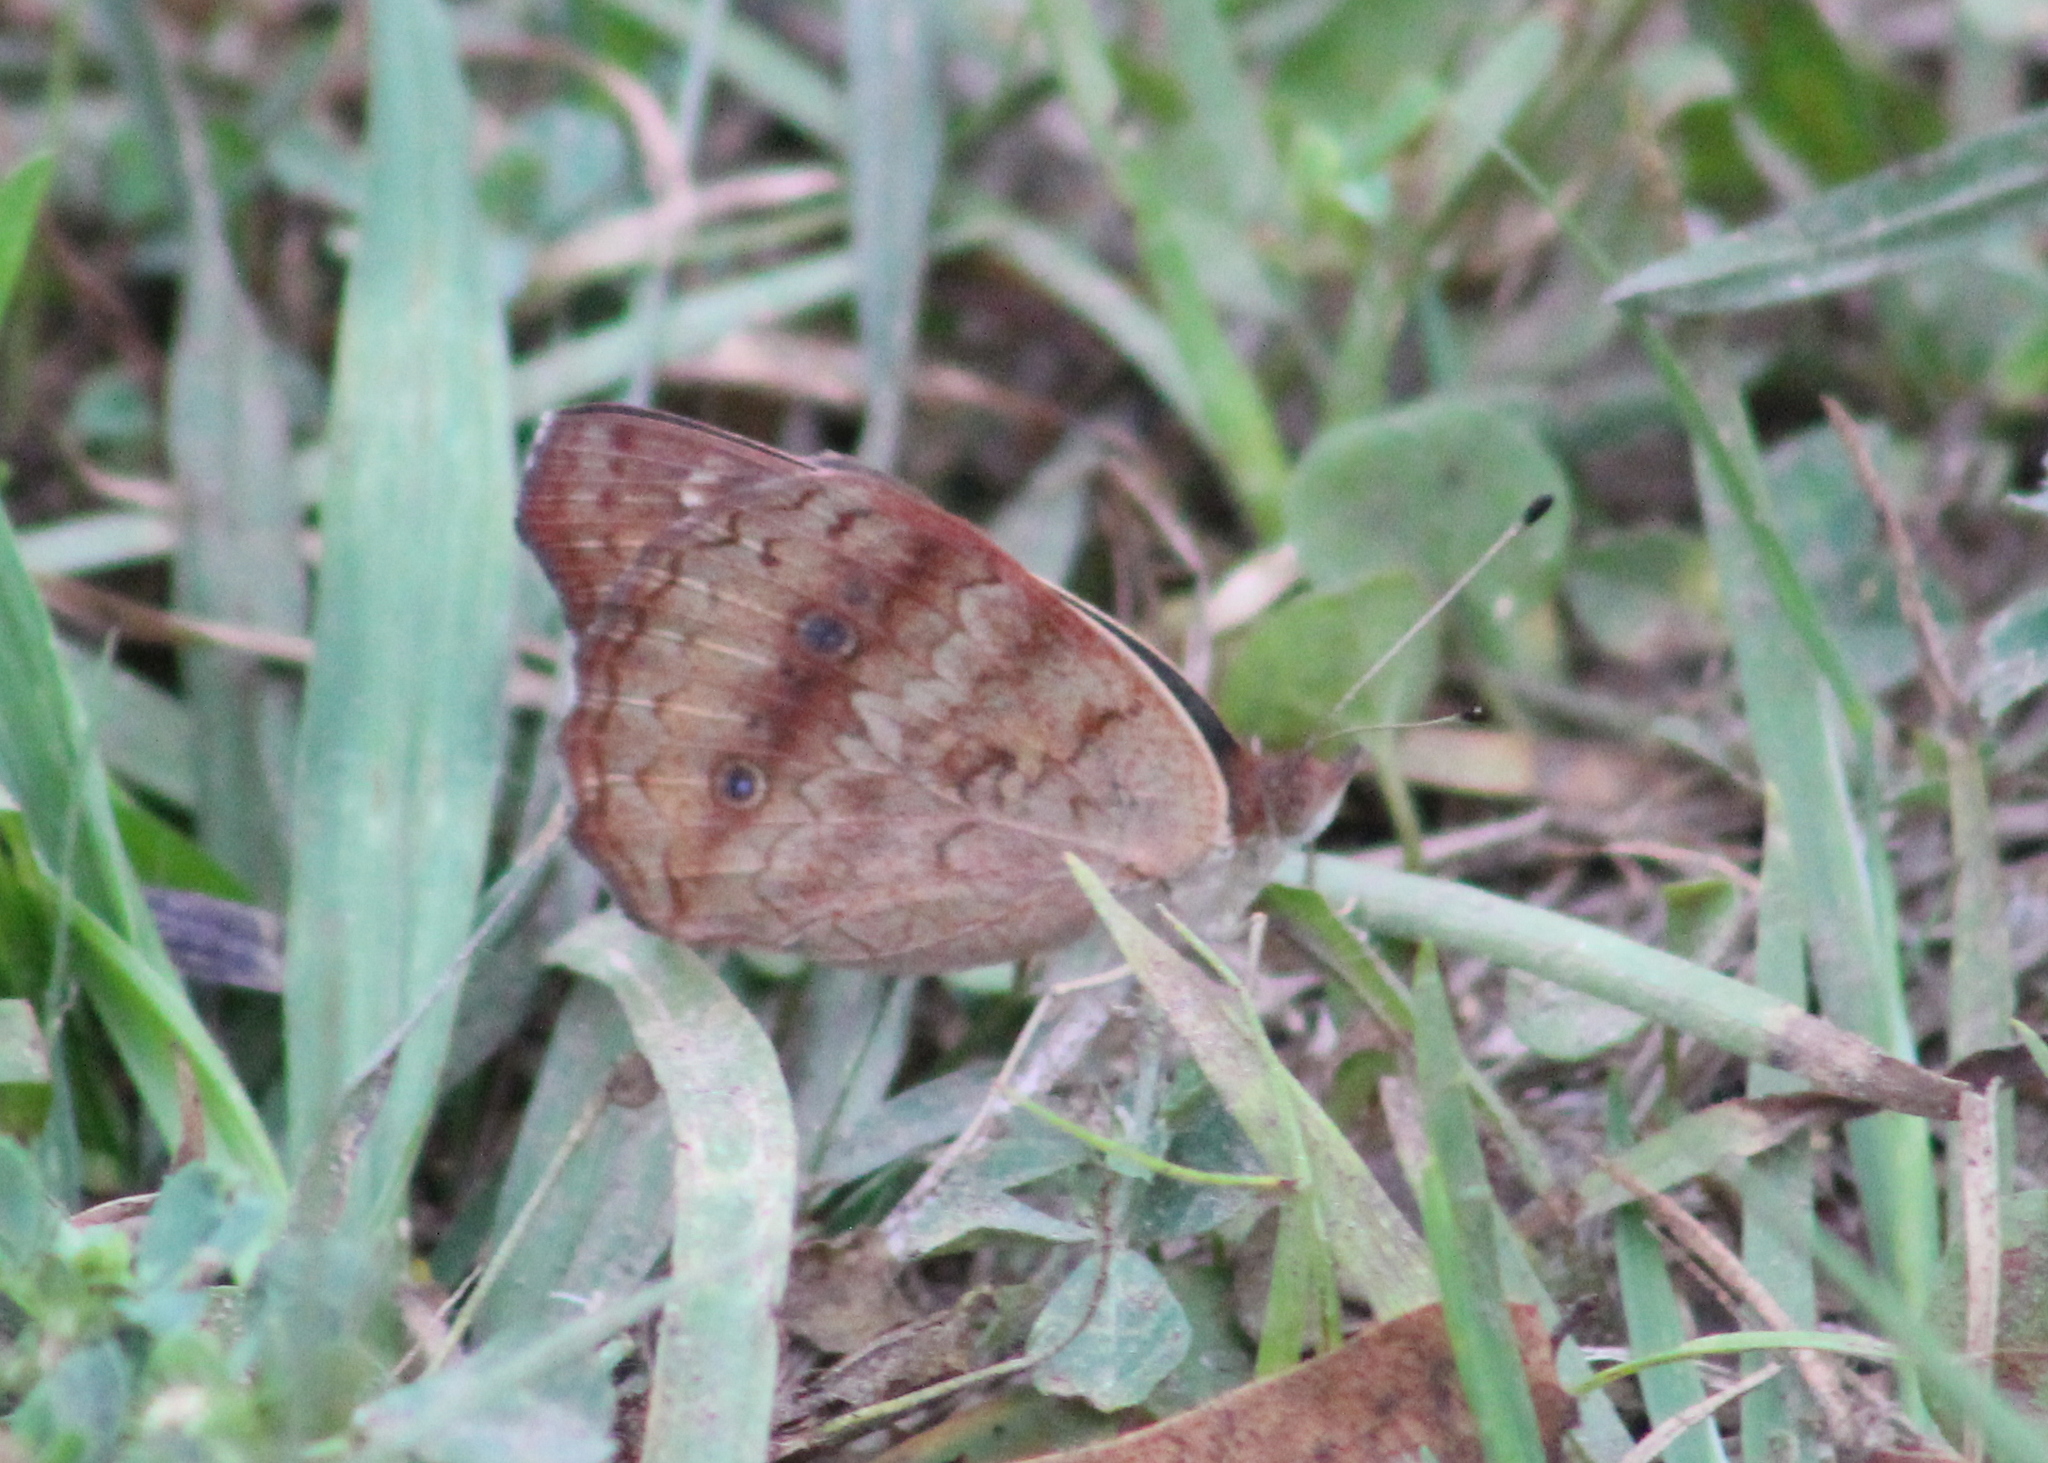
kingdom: Animalia
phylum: Arthropoda
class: Insecta
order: Lepidoptera
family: Nymphalidae
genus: Junonia
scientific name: Junonia coenia
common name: Common buckeye
